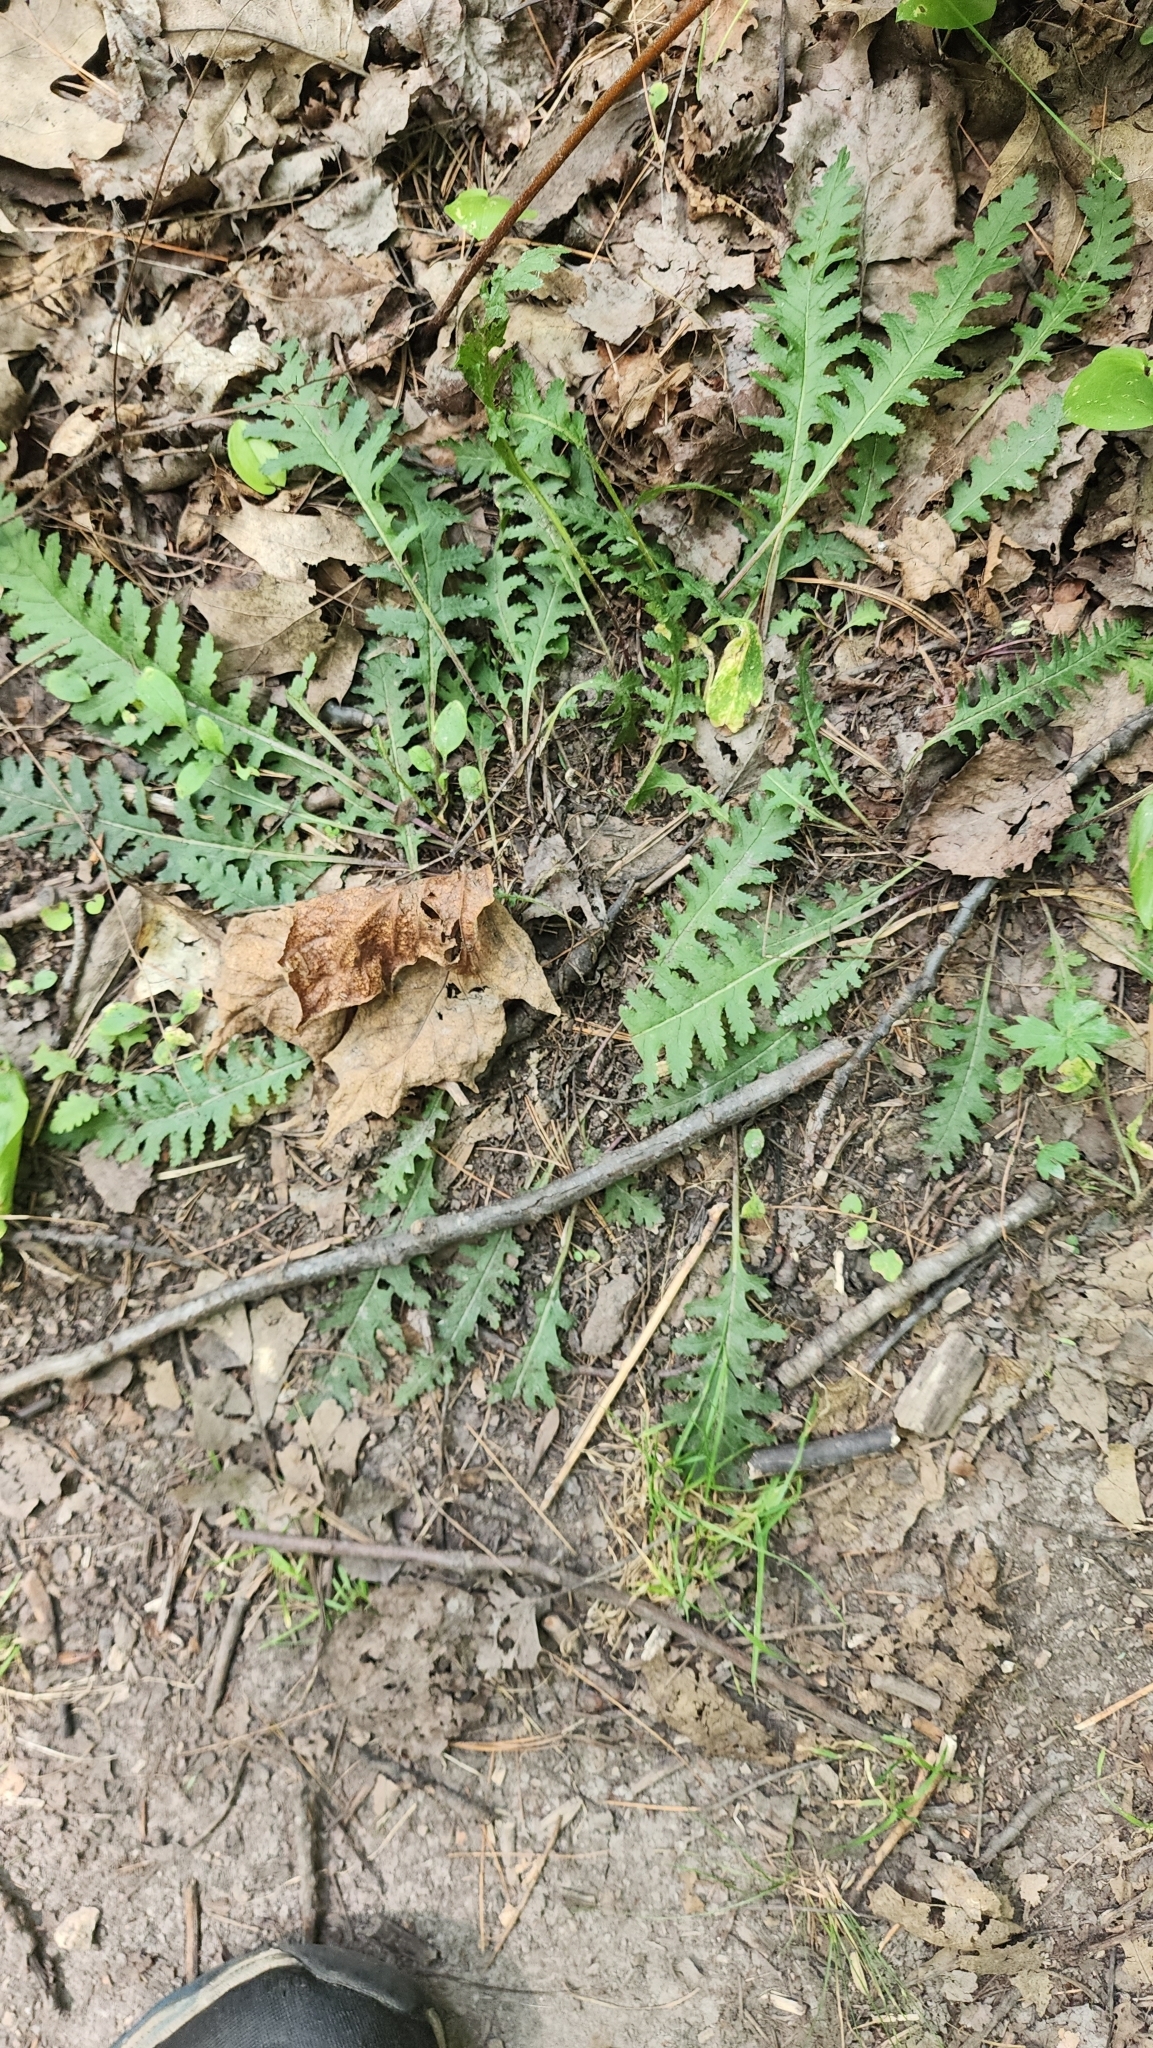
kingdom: Plantae
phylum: Tracheophyta
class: Magnoliopsida
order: Lamiales
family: Orobanchaceae
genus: Pedicularis
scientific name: Pedicularis canadensis
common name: Early lousewort
